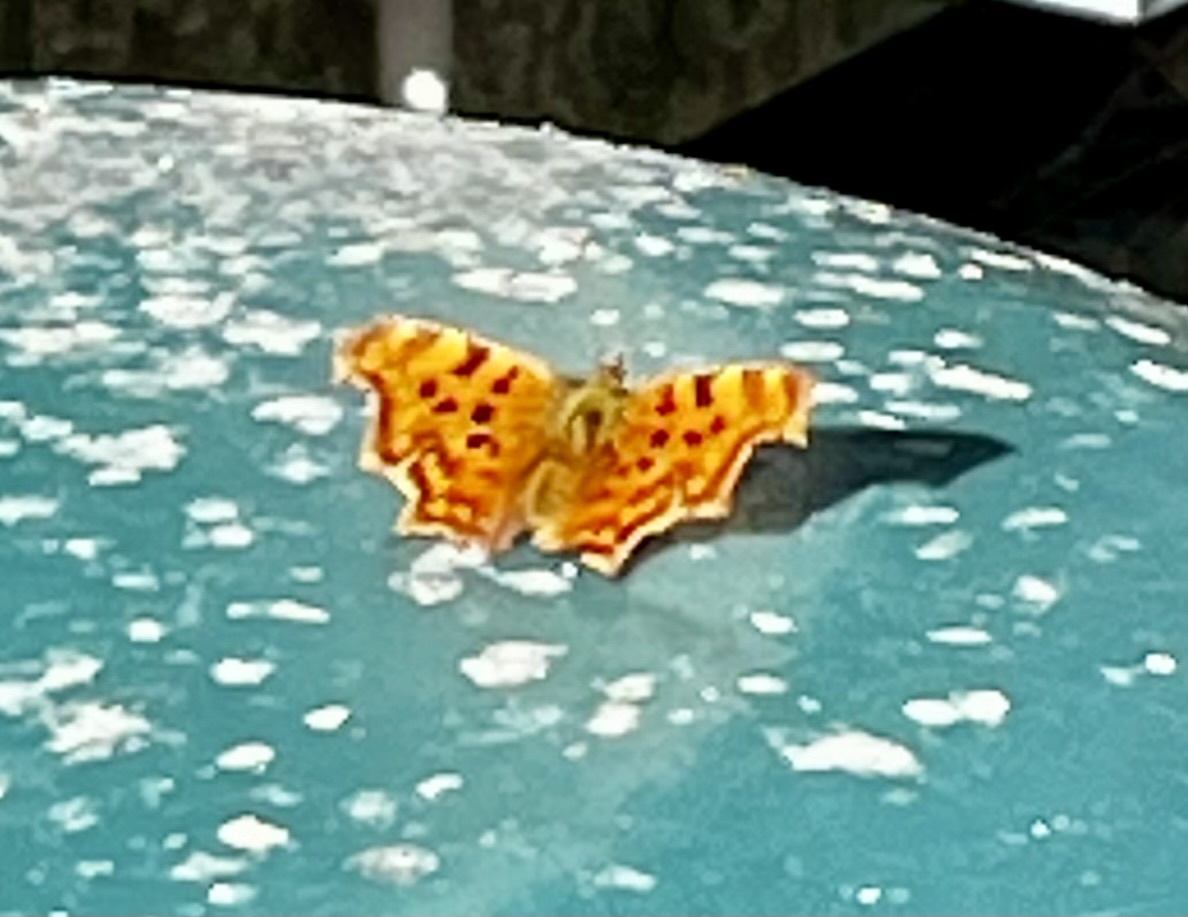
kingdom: Animalia
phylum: Arthropoda
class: Insecta
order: Lepidoptera
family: Nymphalidae
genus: Polygonia
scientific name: Polygonia c-album
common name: Comma
